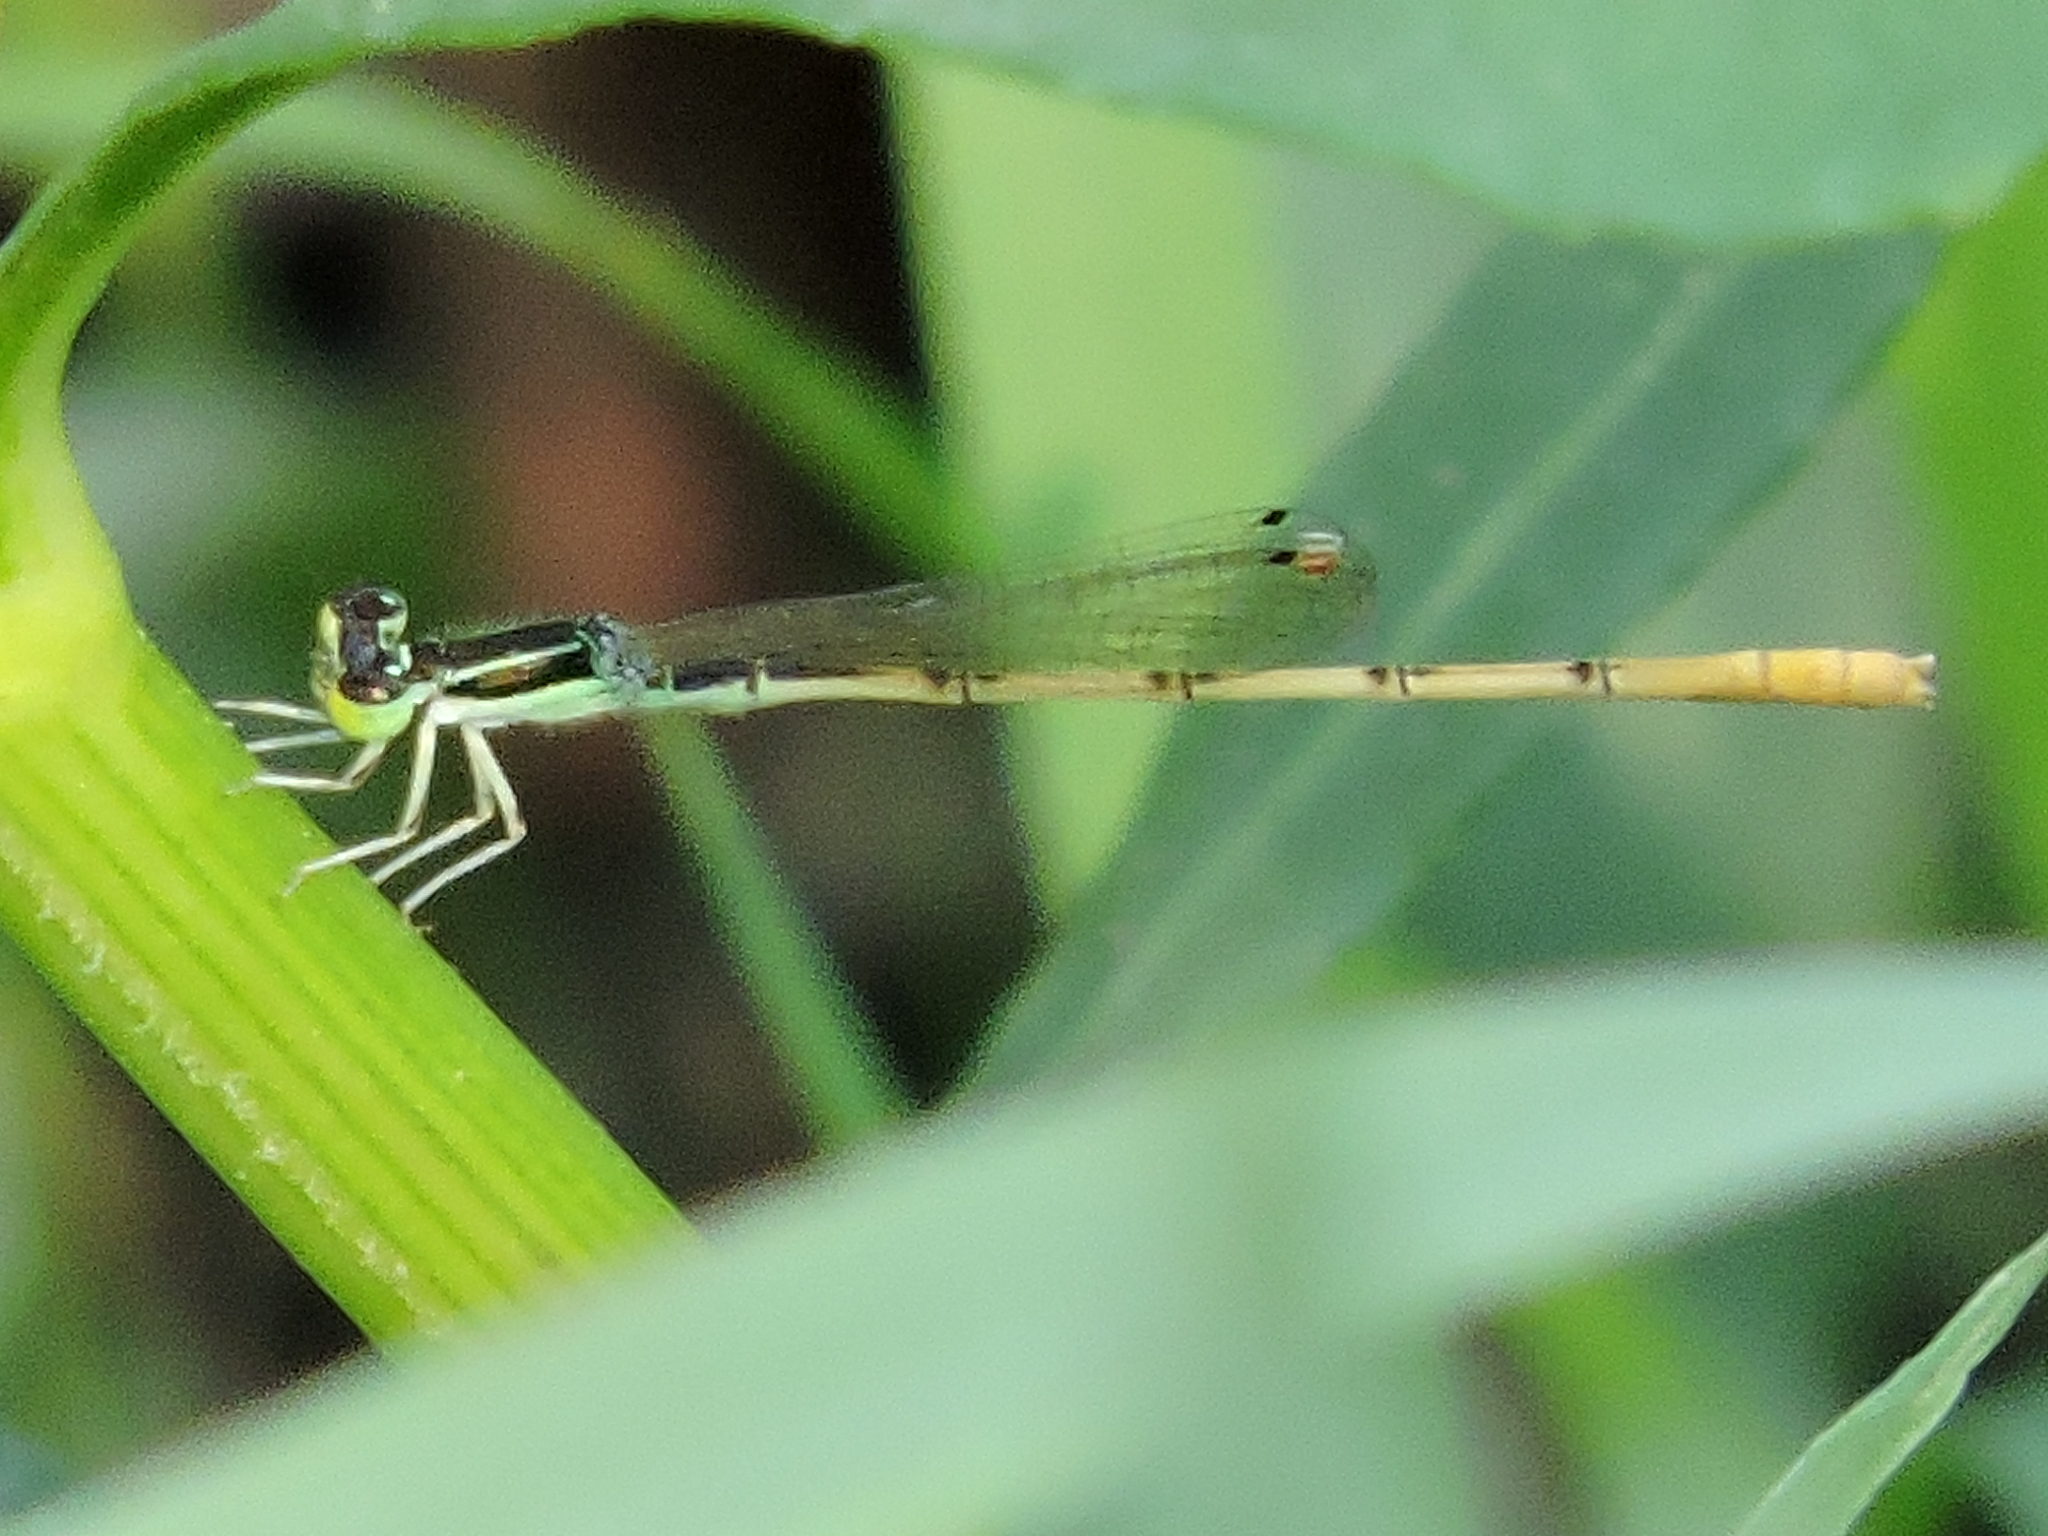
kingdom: Animalia
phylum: Arthropoda
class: Insecta
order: Odonata
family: Coenagrionidae
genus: Ischnura
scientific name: Ischnura hastata
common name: Citrine forktail
